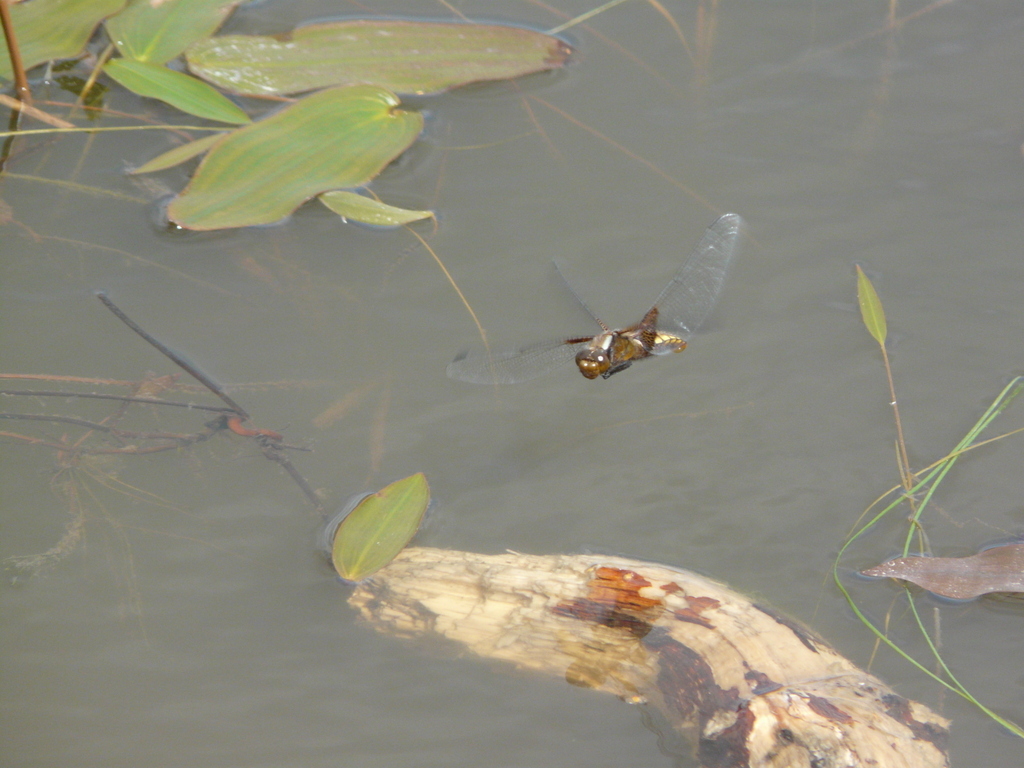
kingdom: Animalia
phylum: Arthropoda
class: Insecta
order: Odonata
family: Libellulidae
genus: Libellula
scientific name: Libellula depressa
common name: Broad-bodied chaser
